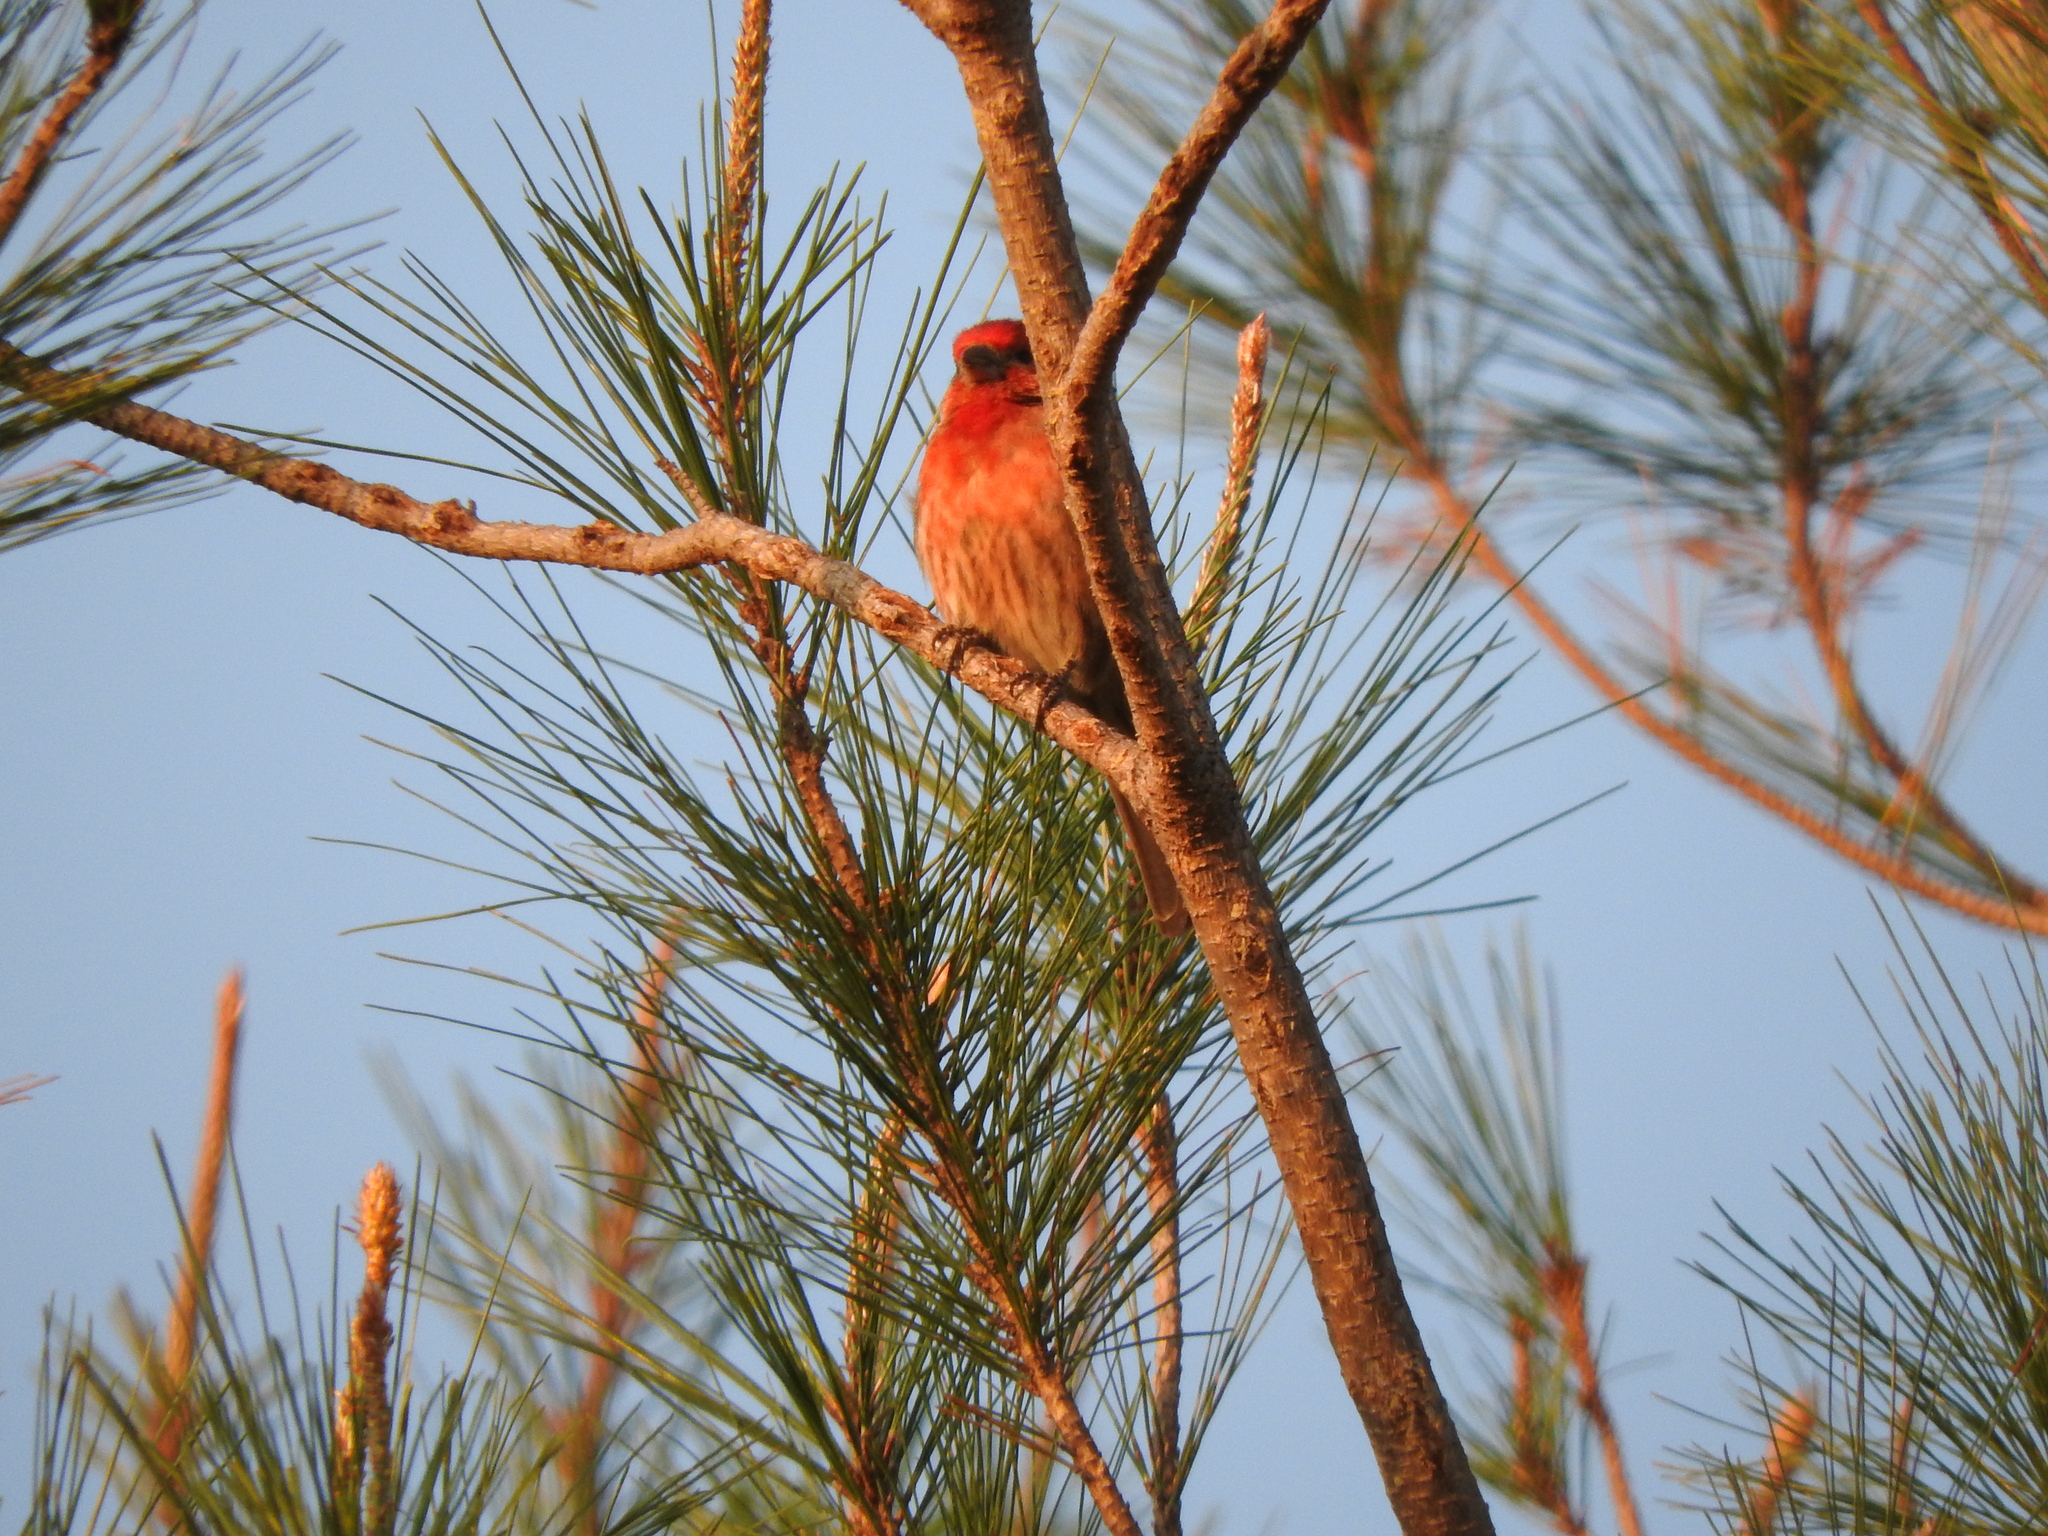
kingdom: Animalia
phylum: Chordata
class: Aves
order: Passeriformes
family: Fringillidae
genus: Haemorhous
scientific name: Haemorhous mexicanus
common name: House finch
